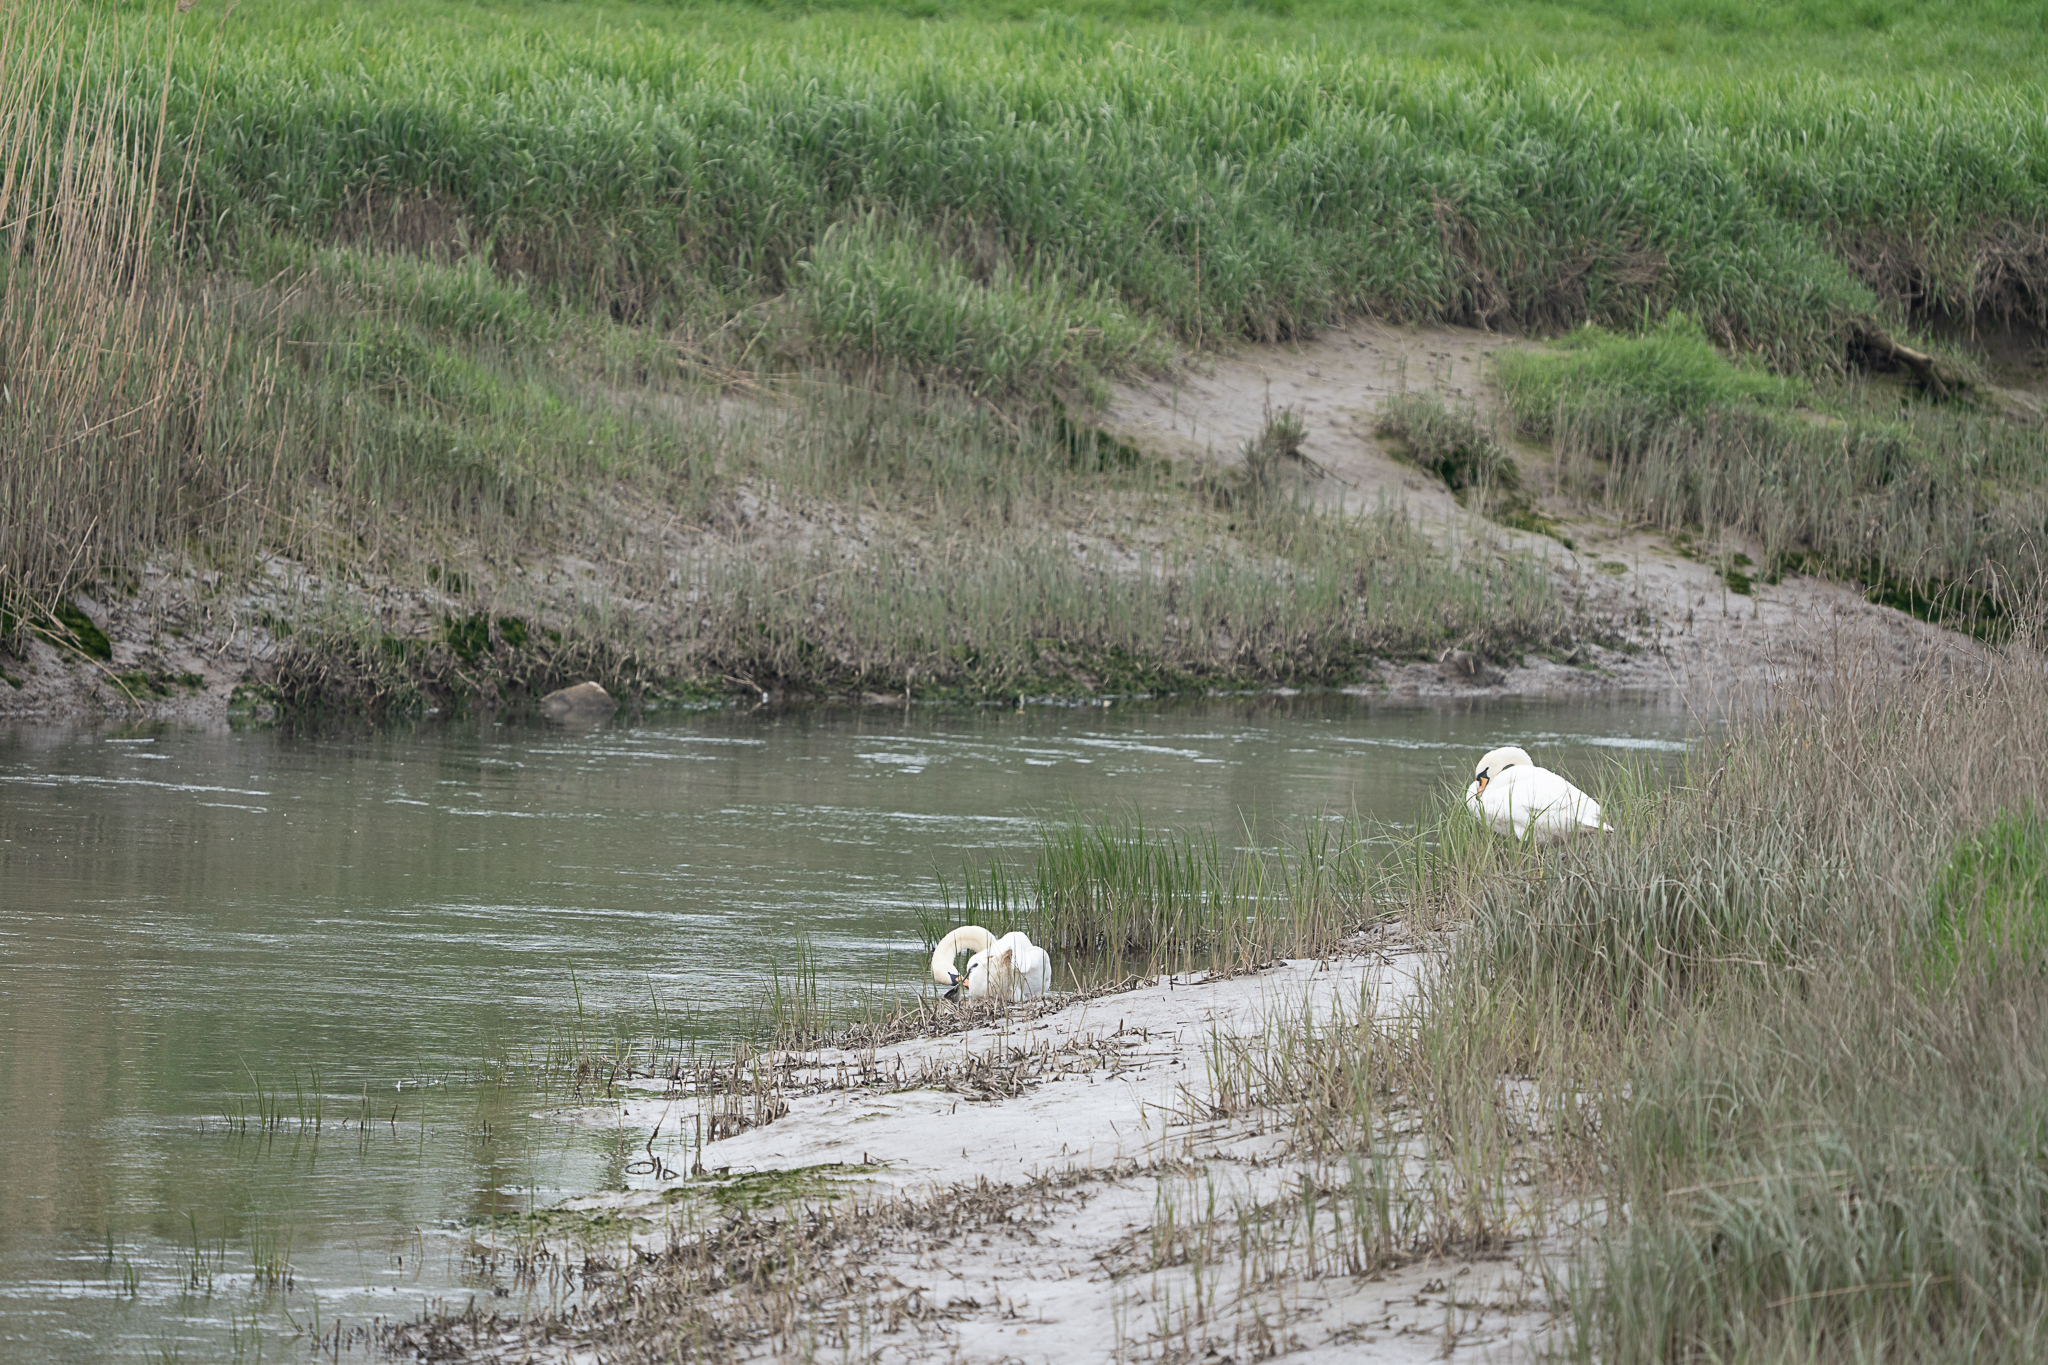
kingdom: Animalia
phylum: Chordata
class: Aves
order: Anseriformes
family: Anatidae
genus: Cygnus
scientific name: Cygnus olor
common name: Mute swan
